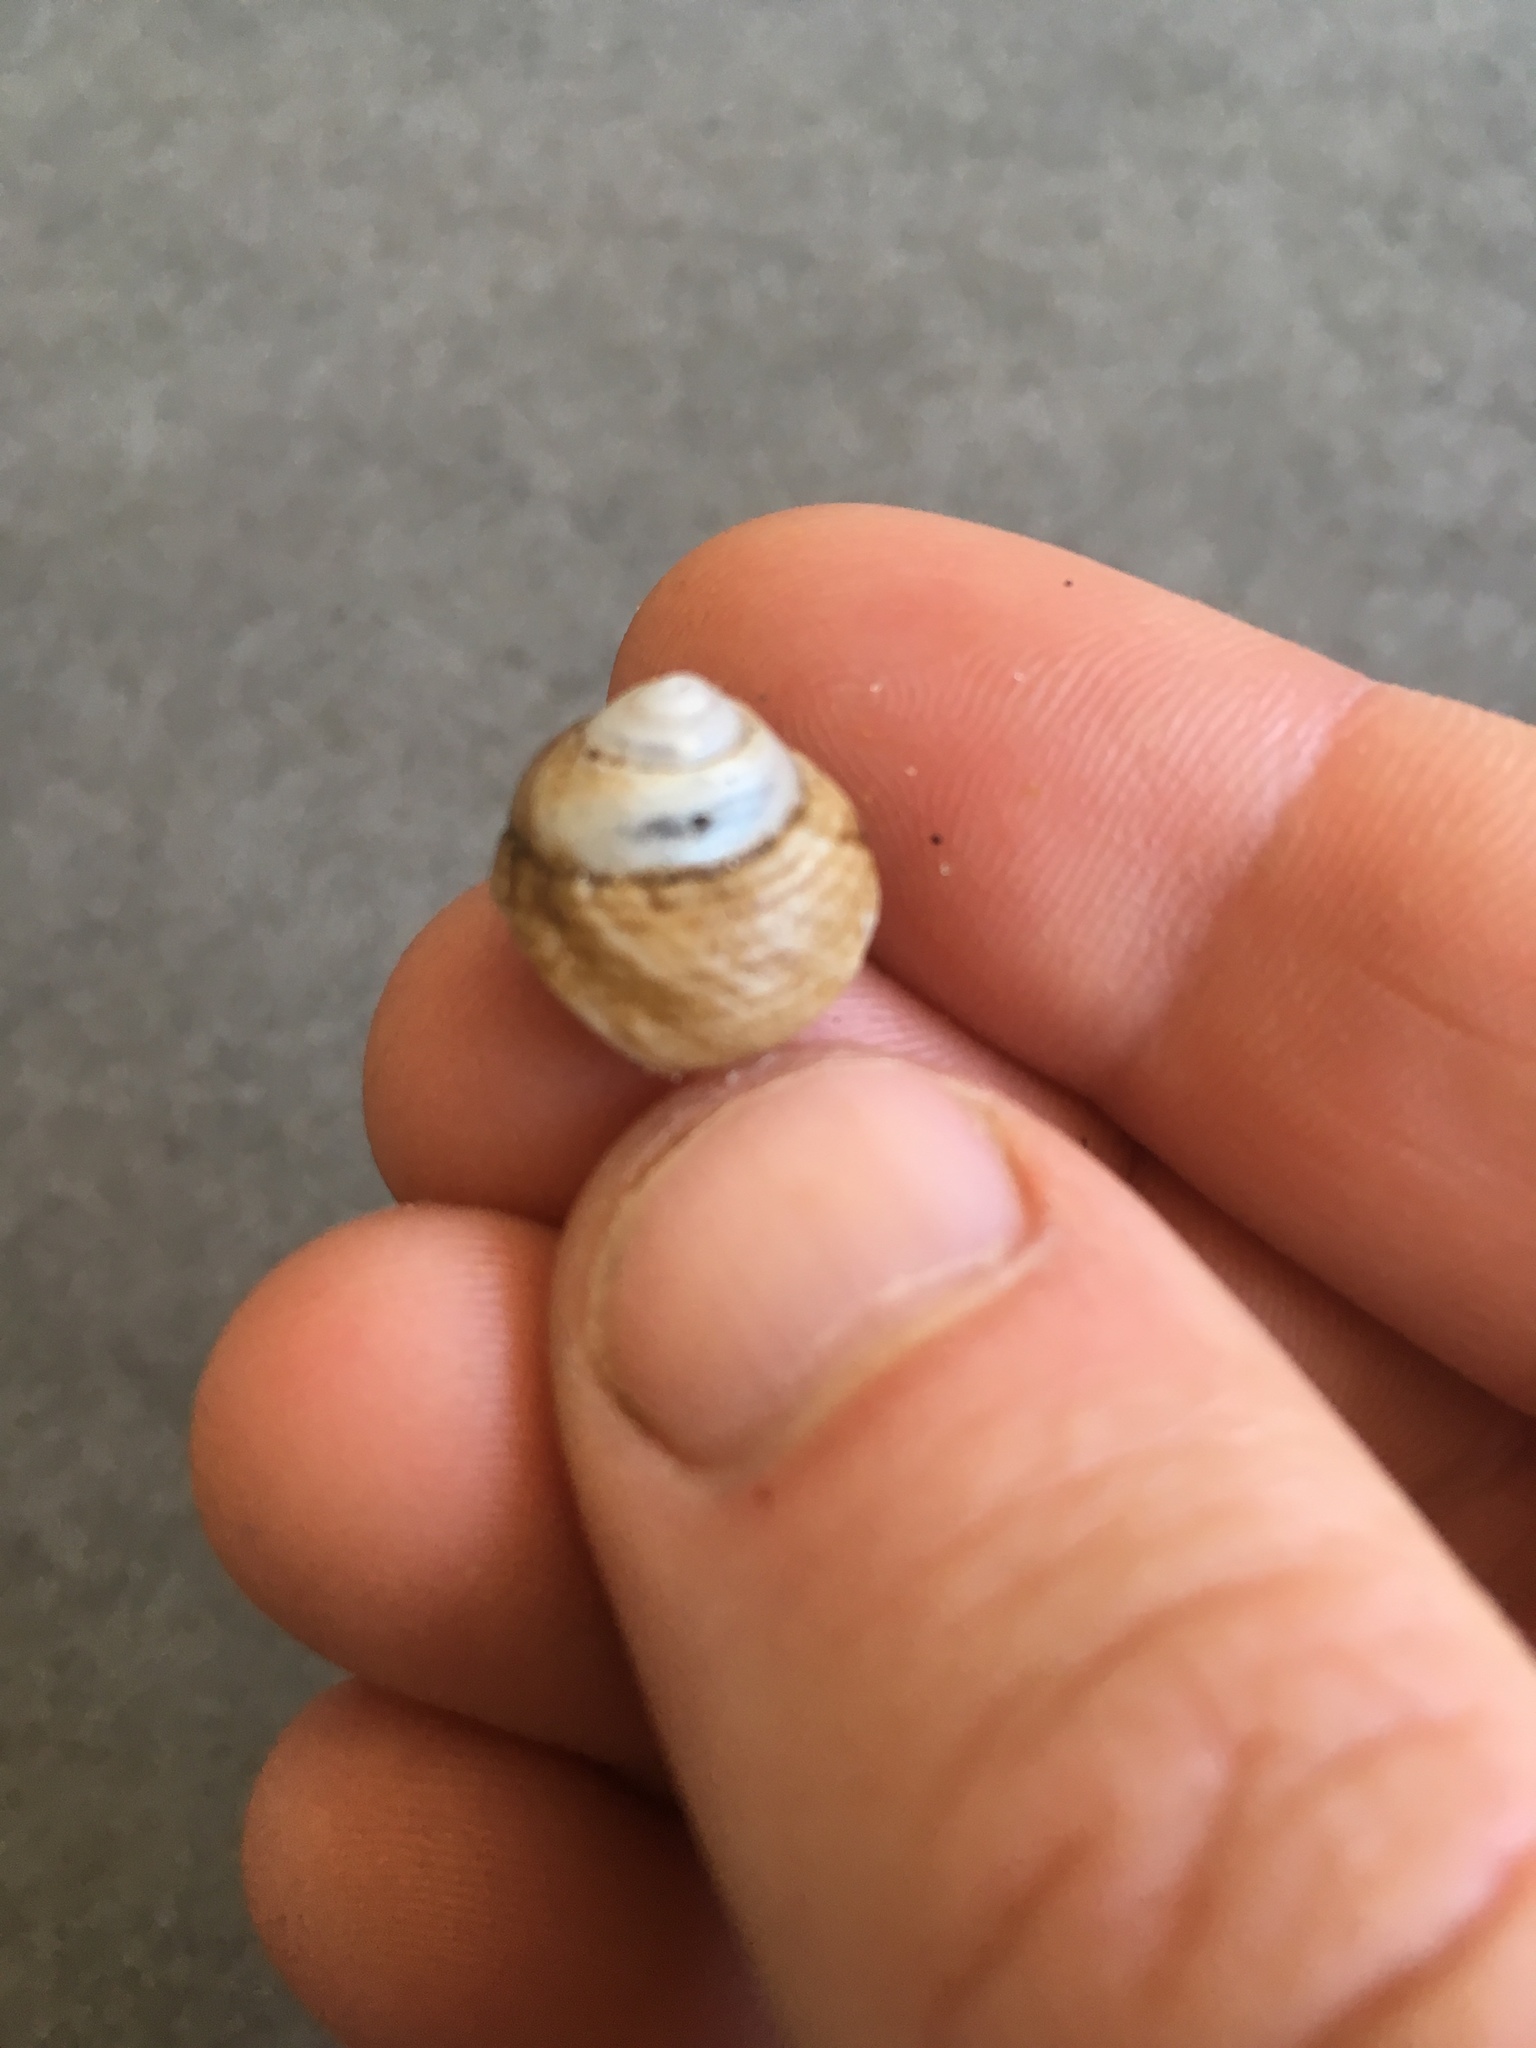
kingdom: Animalia
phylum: Mollusca
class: Gastropoda
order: Trochida
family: Tegulidae
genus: Tegula
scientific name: Tegula patagonica
